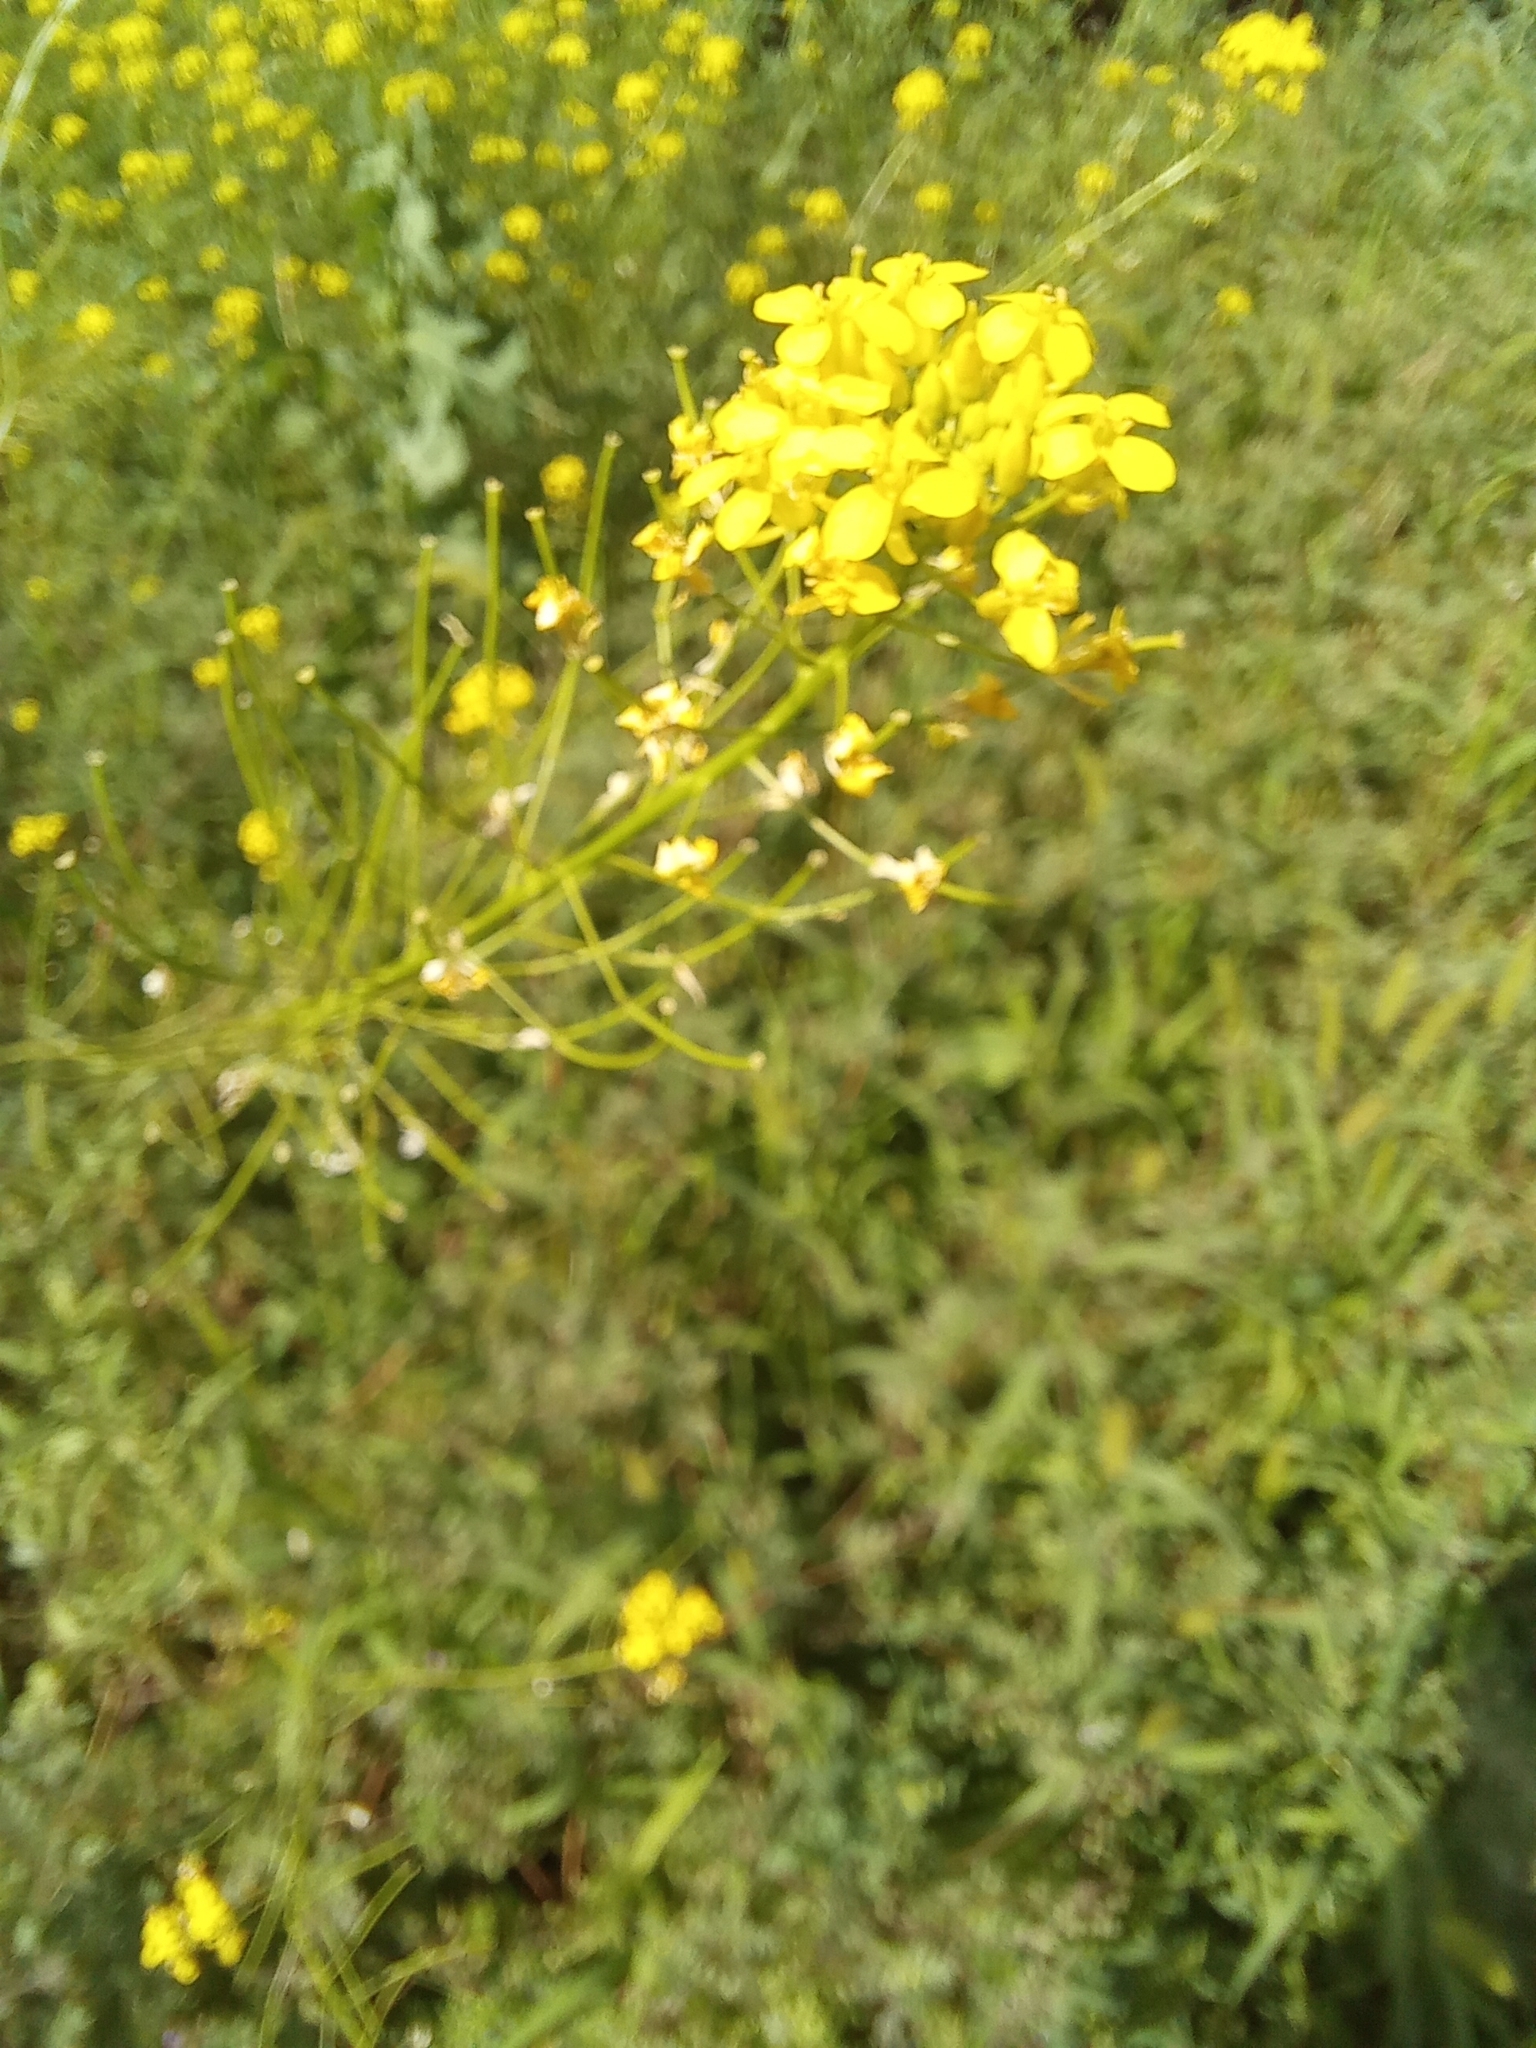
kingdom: Plantae
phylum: Tracheophyta
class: Magnoliopsida
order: Brassicales
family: Brassicaceae
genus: Sisymbrium
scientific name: Sisymbrium loeselii
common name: False london-rocket
